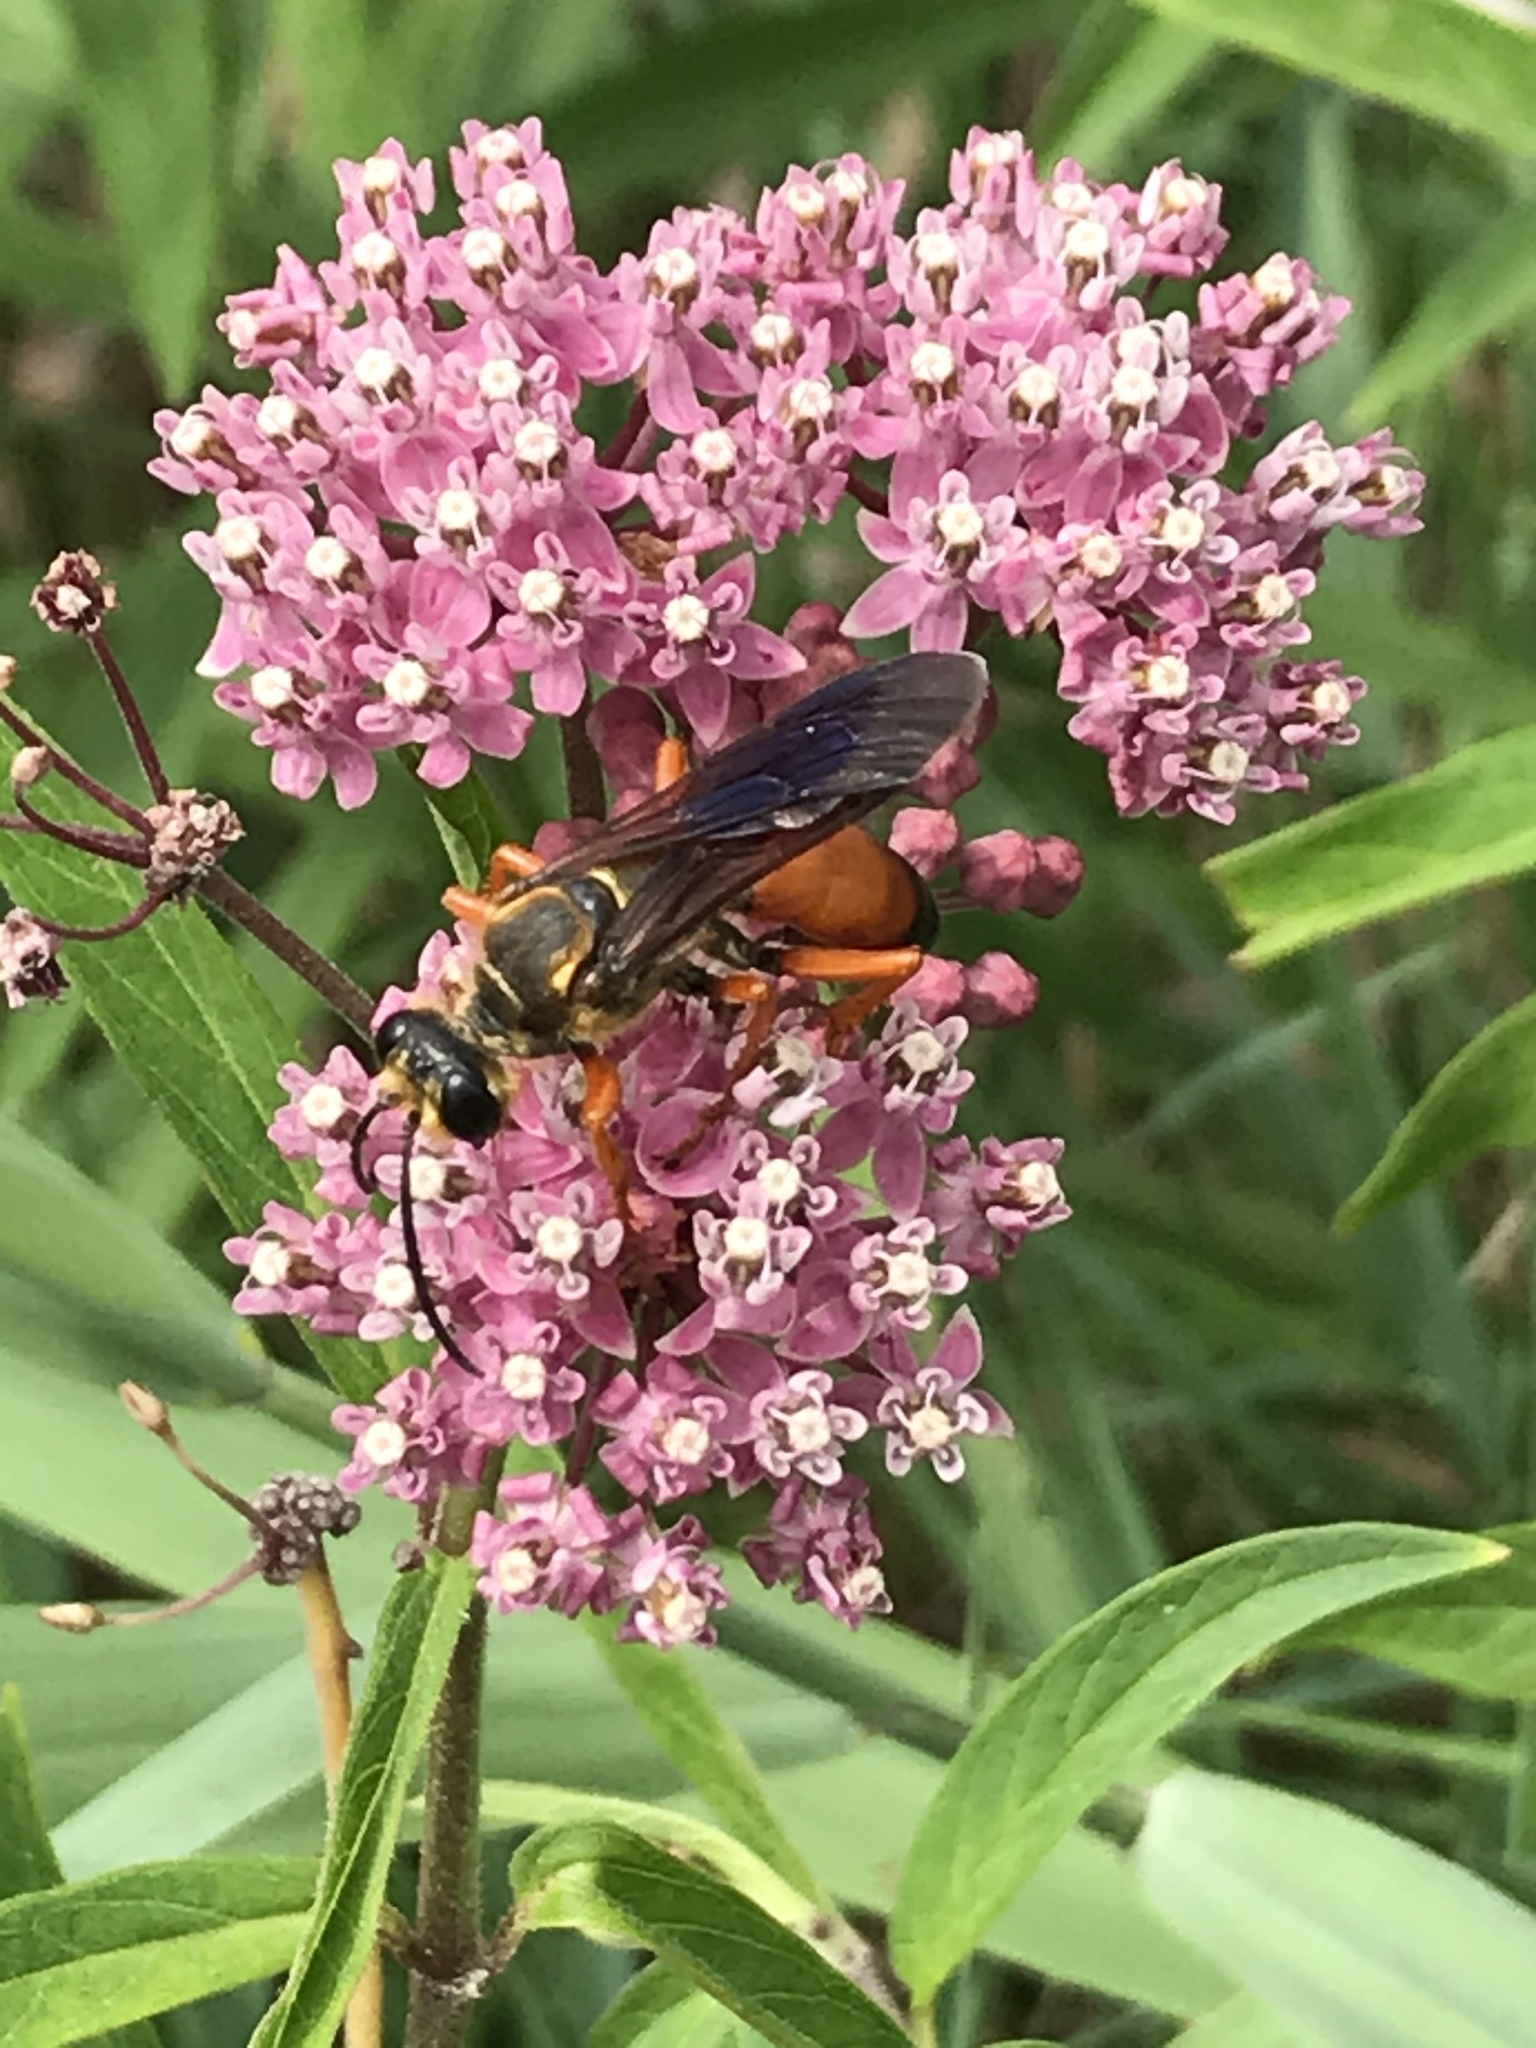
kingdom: Animalia
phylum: Arthropoda
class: Insecta
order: Hymenoptera
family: Sphecidae
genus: Sphex
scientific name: Sphex ichneumoneus
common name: Great golden digger wasp
